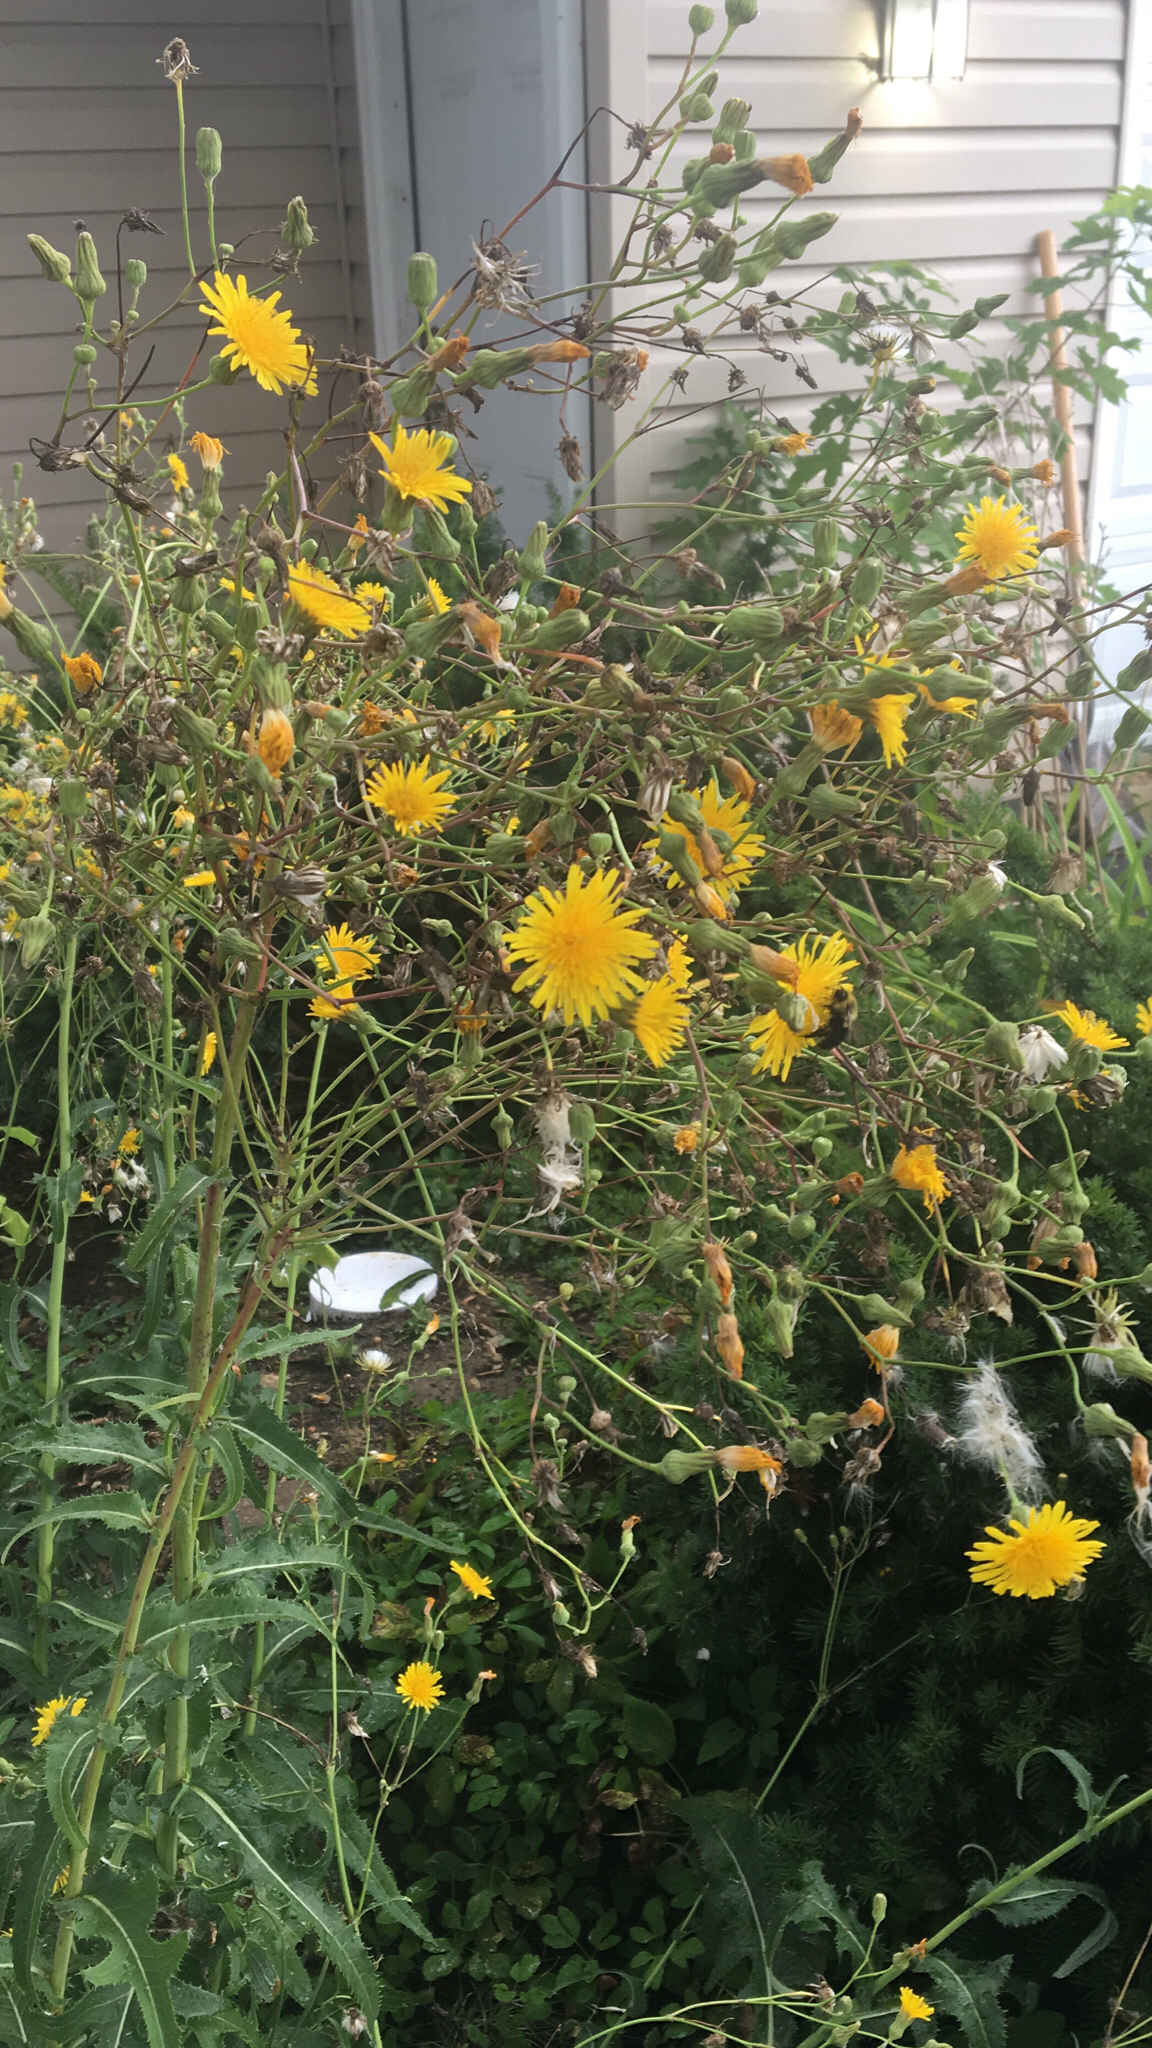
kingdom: Plantae
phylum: Tracheophyta
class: Magnoliopsida
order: Asterales
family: Asteraceae
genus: Sonchus
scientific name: Sonchus arvensis
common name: Perennial sow-thistle
